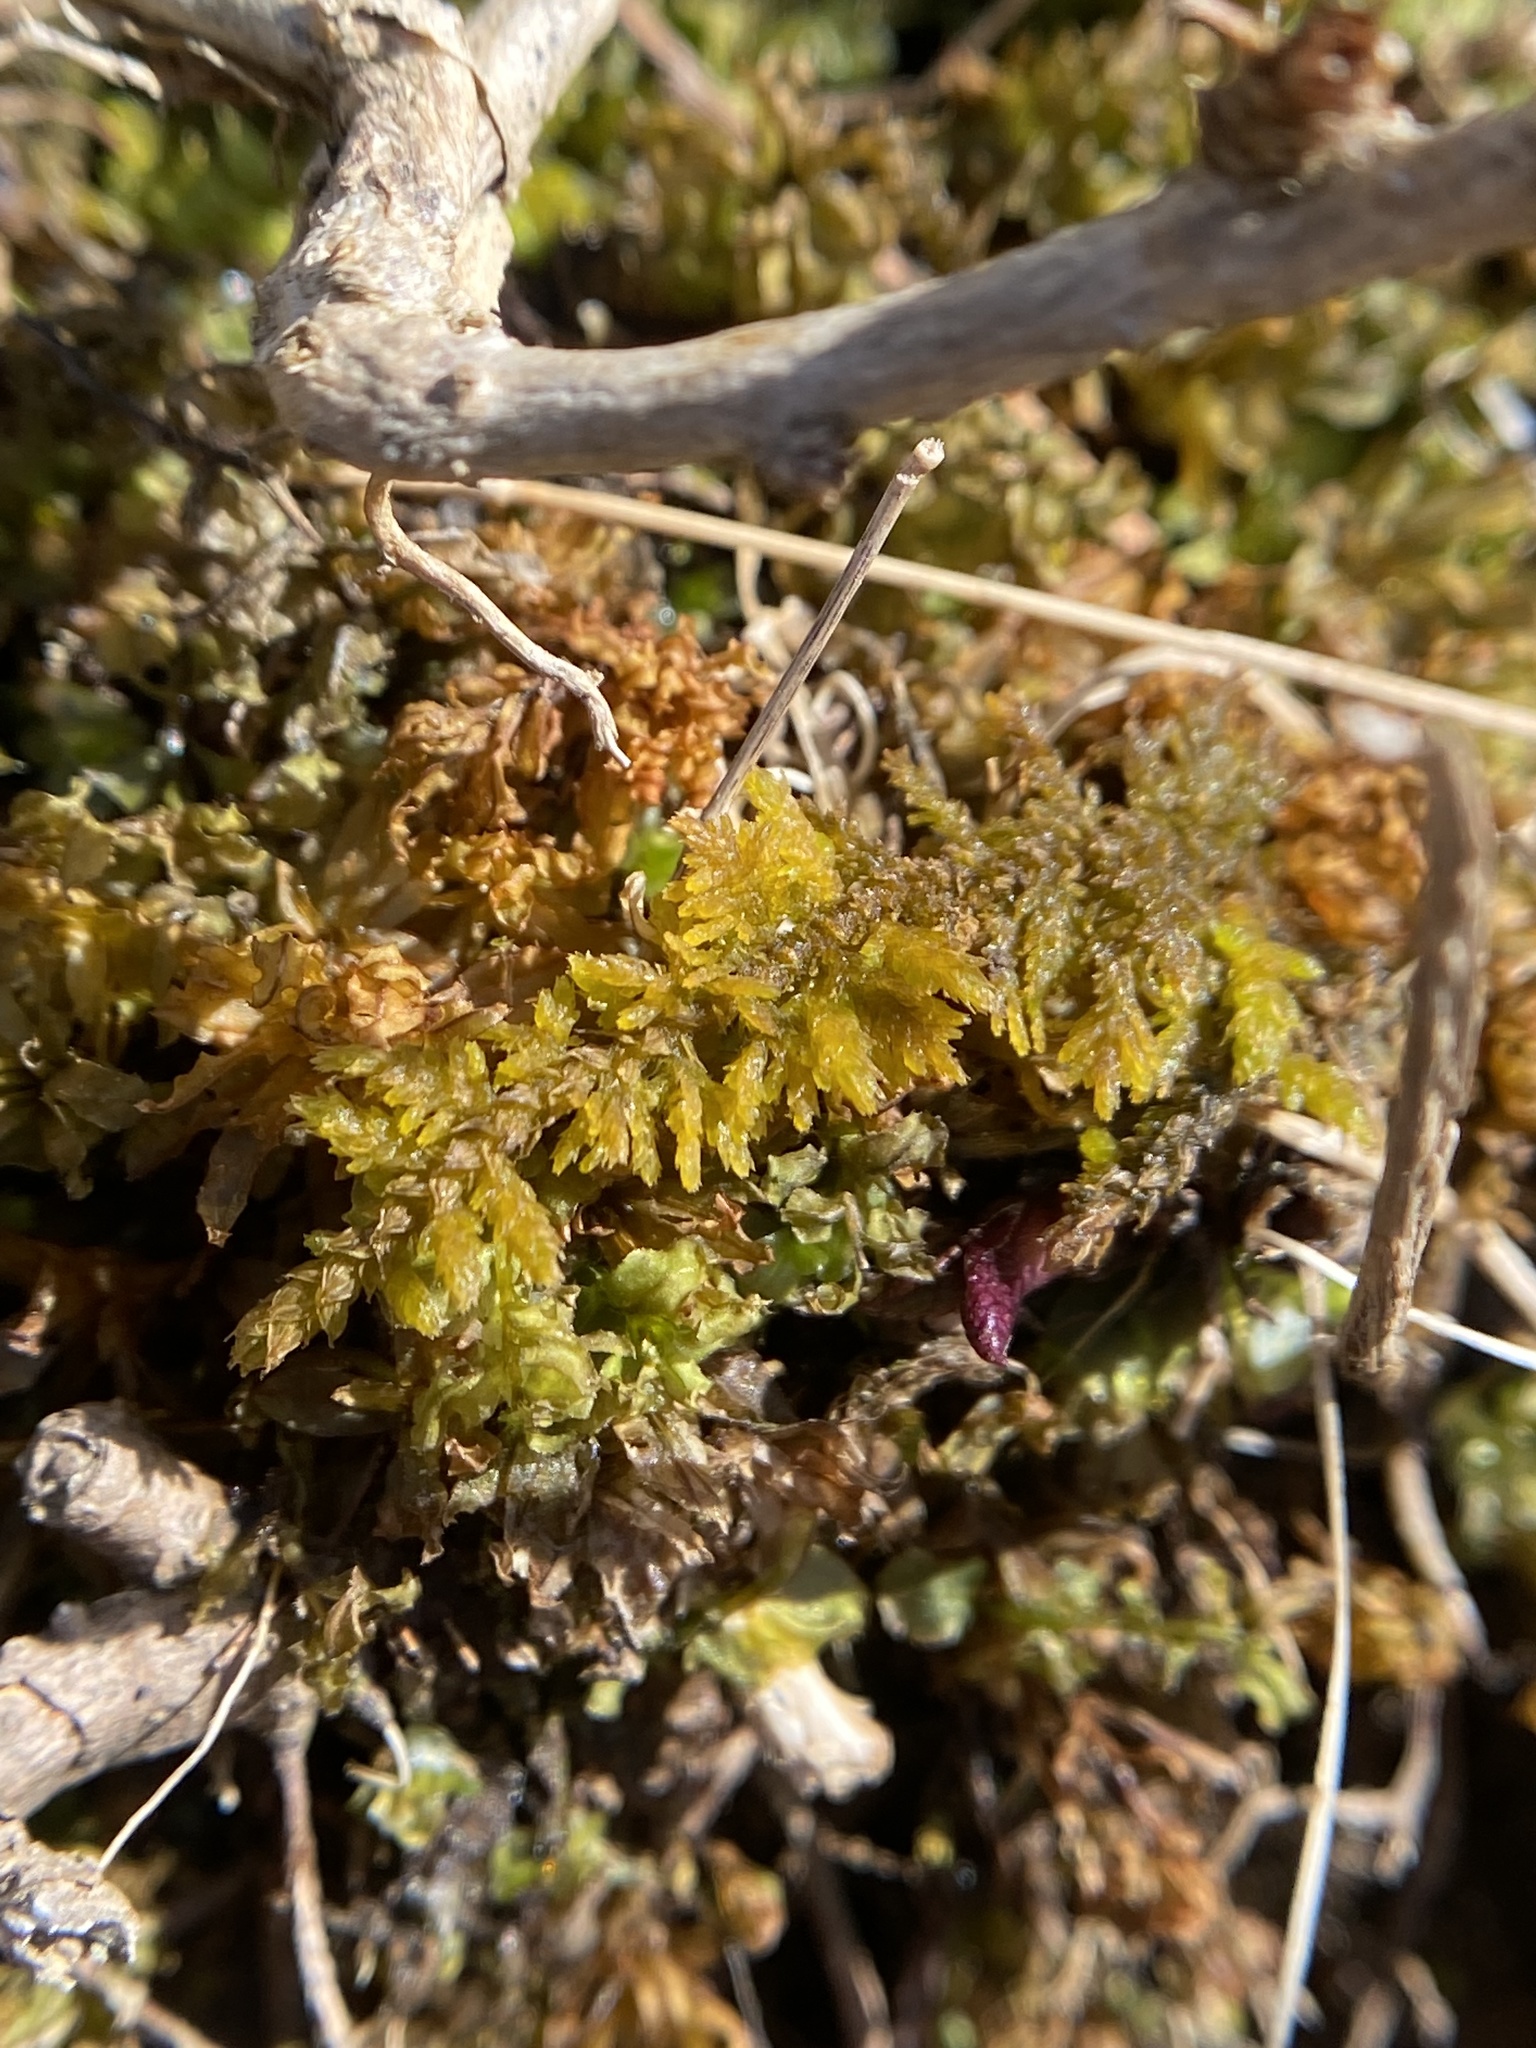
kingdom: Plantae
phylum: Bryophyta
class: Bryopsida
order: Hypnales
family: Thuidiaceae
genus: Thuidium
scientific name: Thuidium delicatulum
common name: Delicate fern moss
